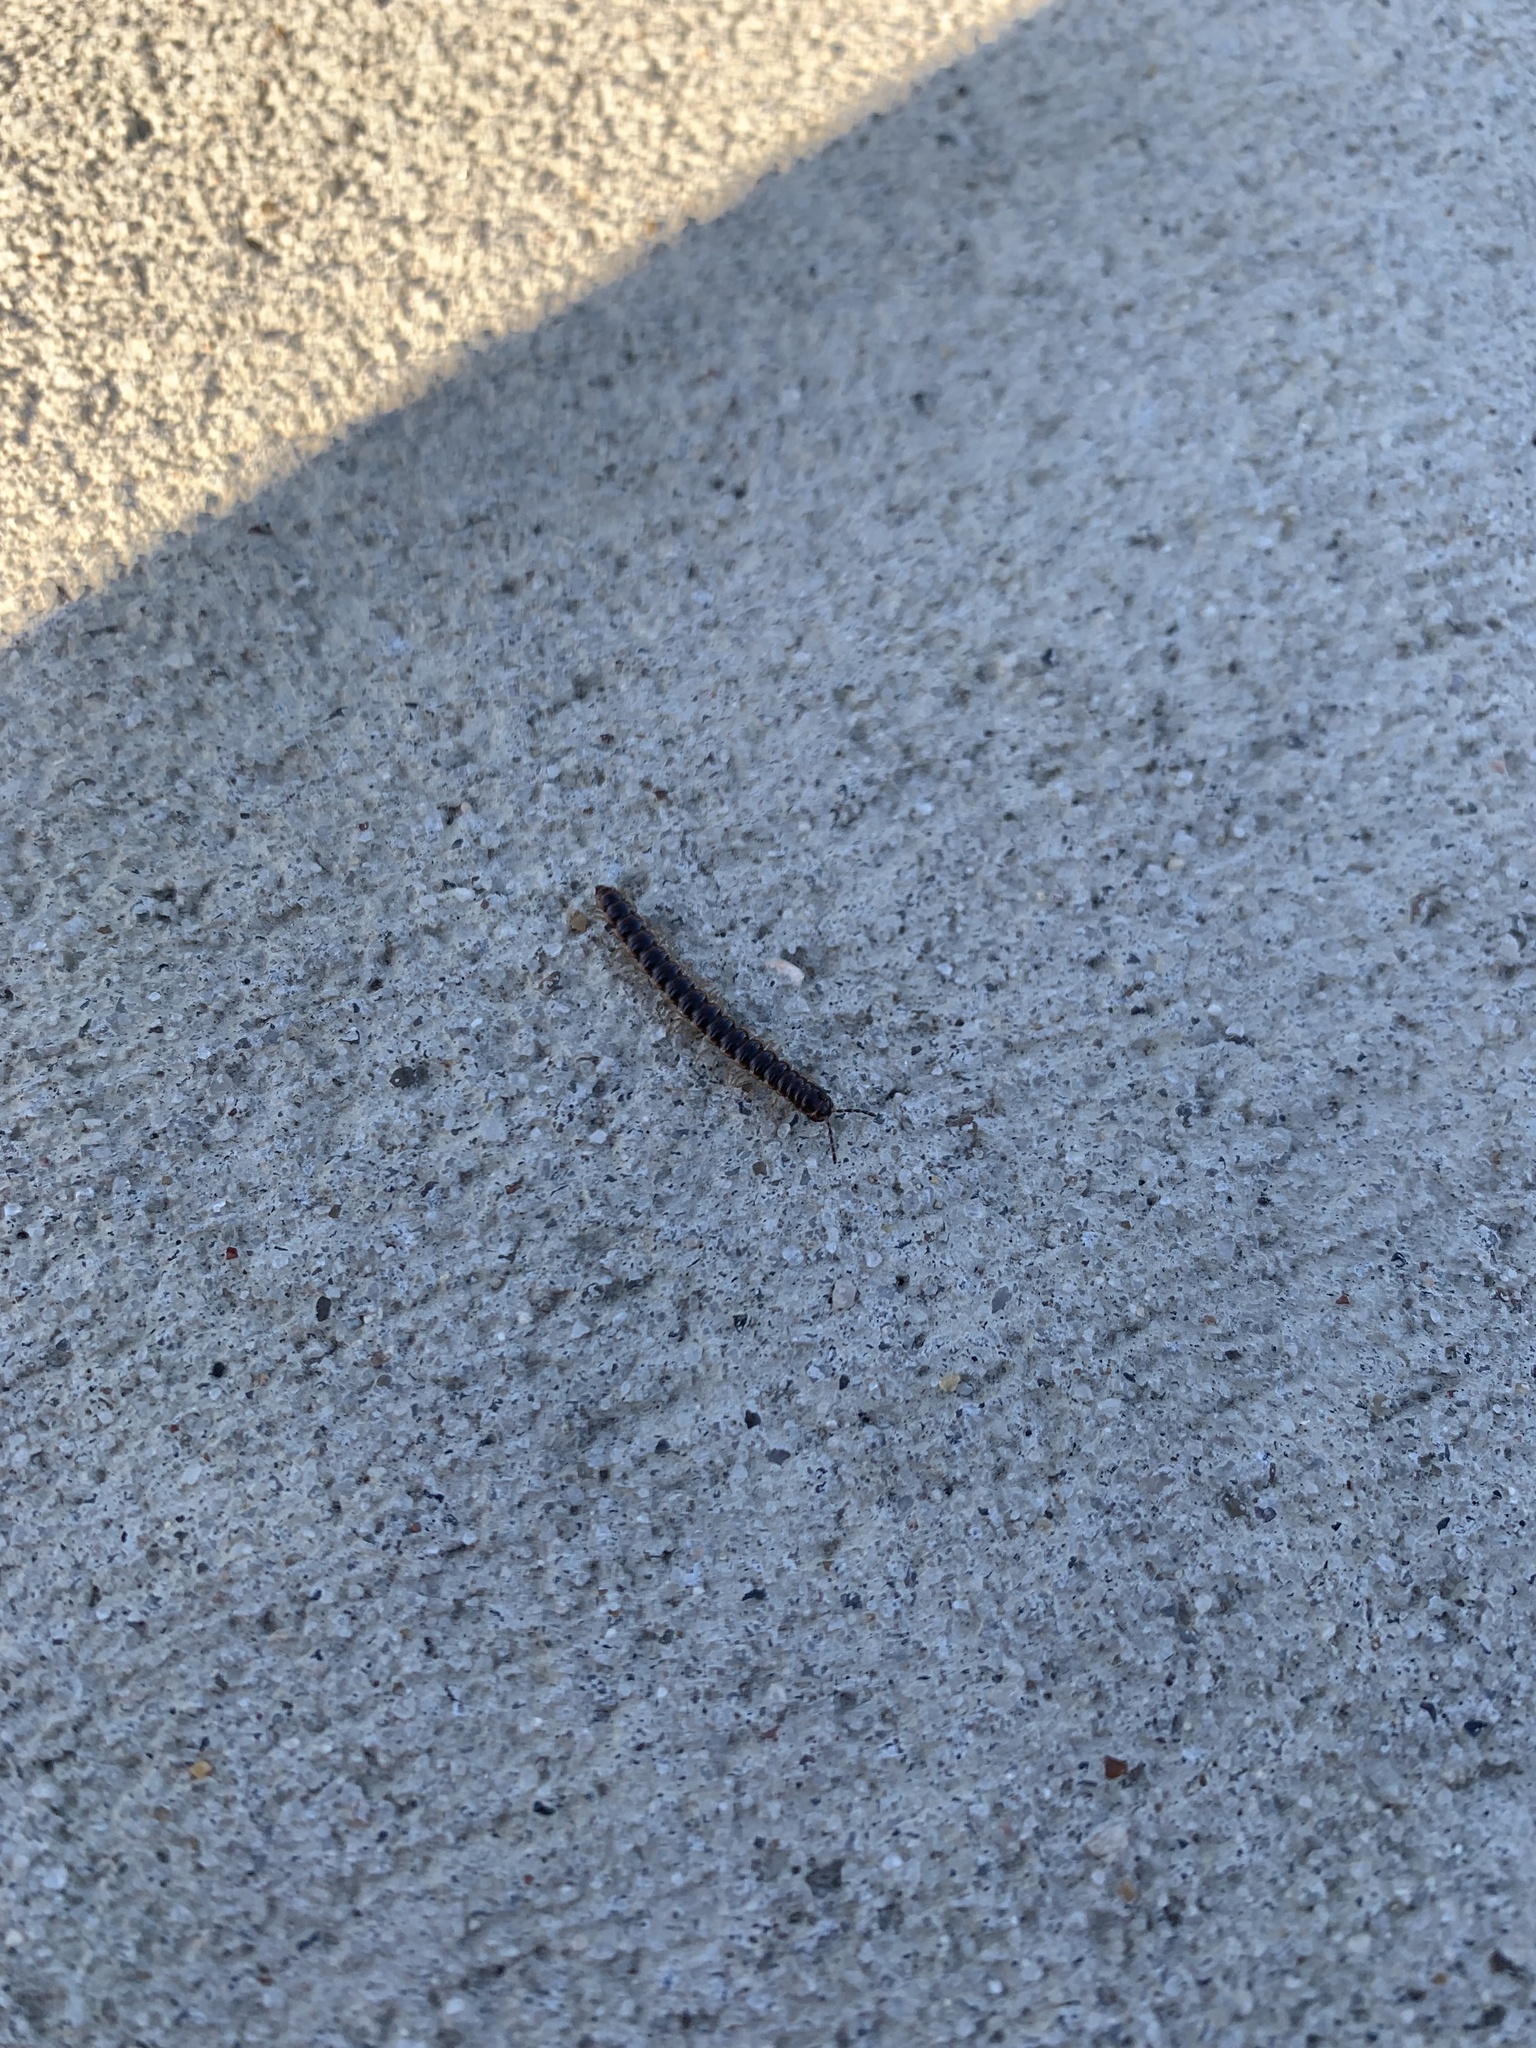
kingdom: Animalia
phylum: Arthropoda
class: Diplopoda
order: Polydesmida
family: Paradoxosomatidae
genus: Oxidus
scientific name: Oxidus gracilis
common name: Greenhouse millipede
